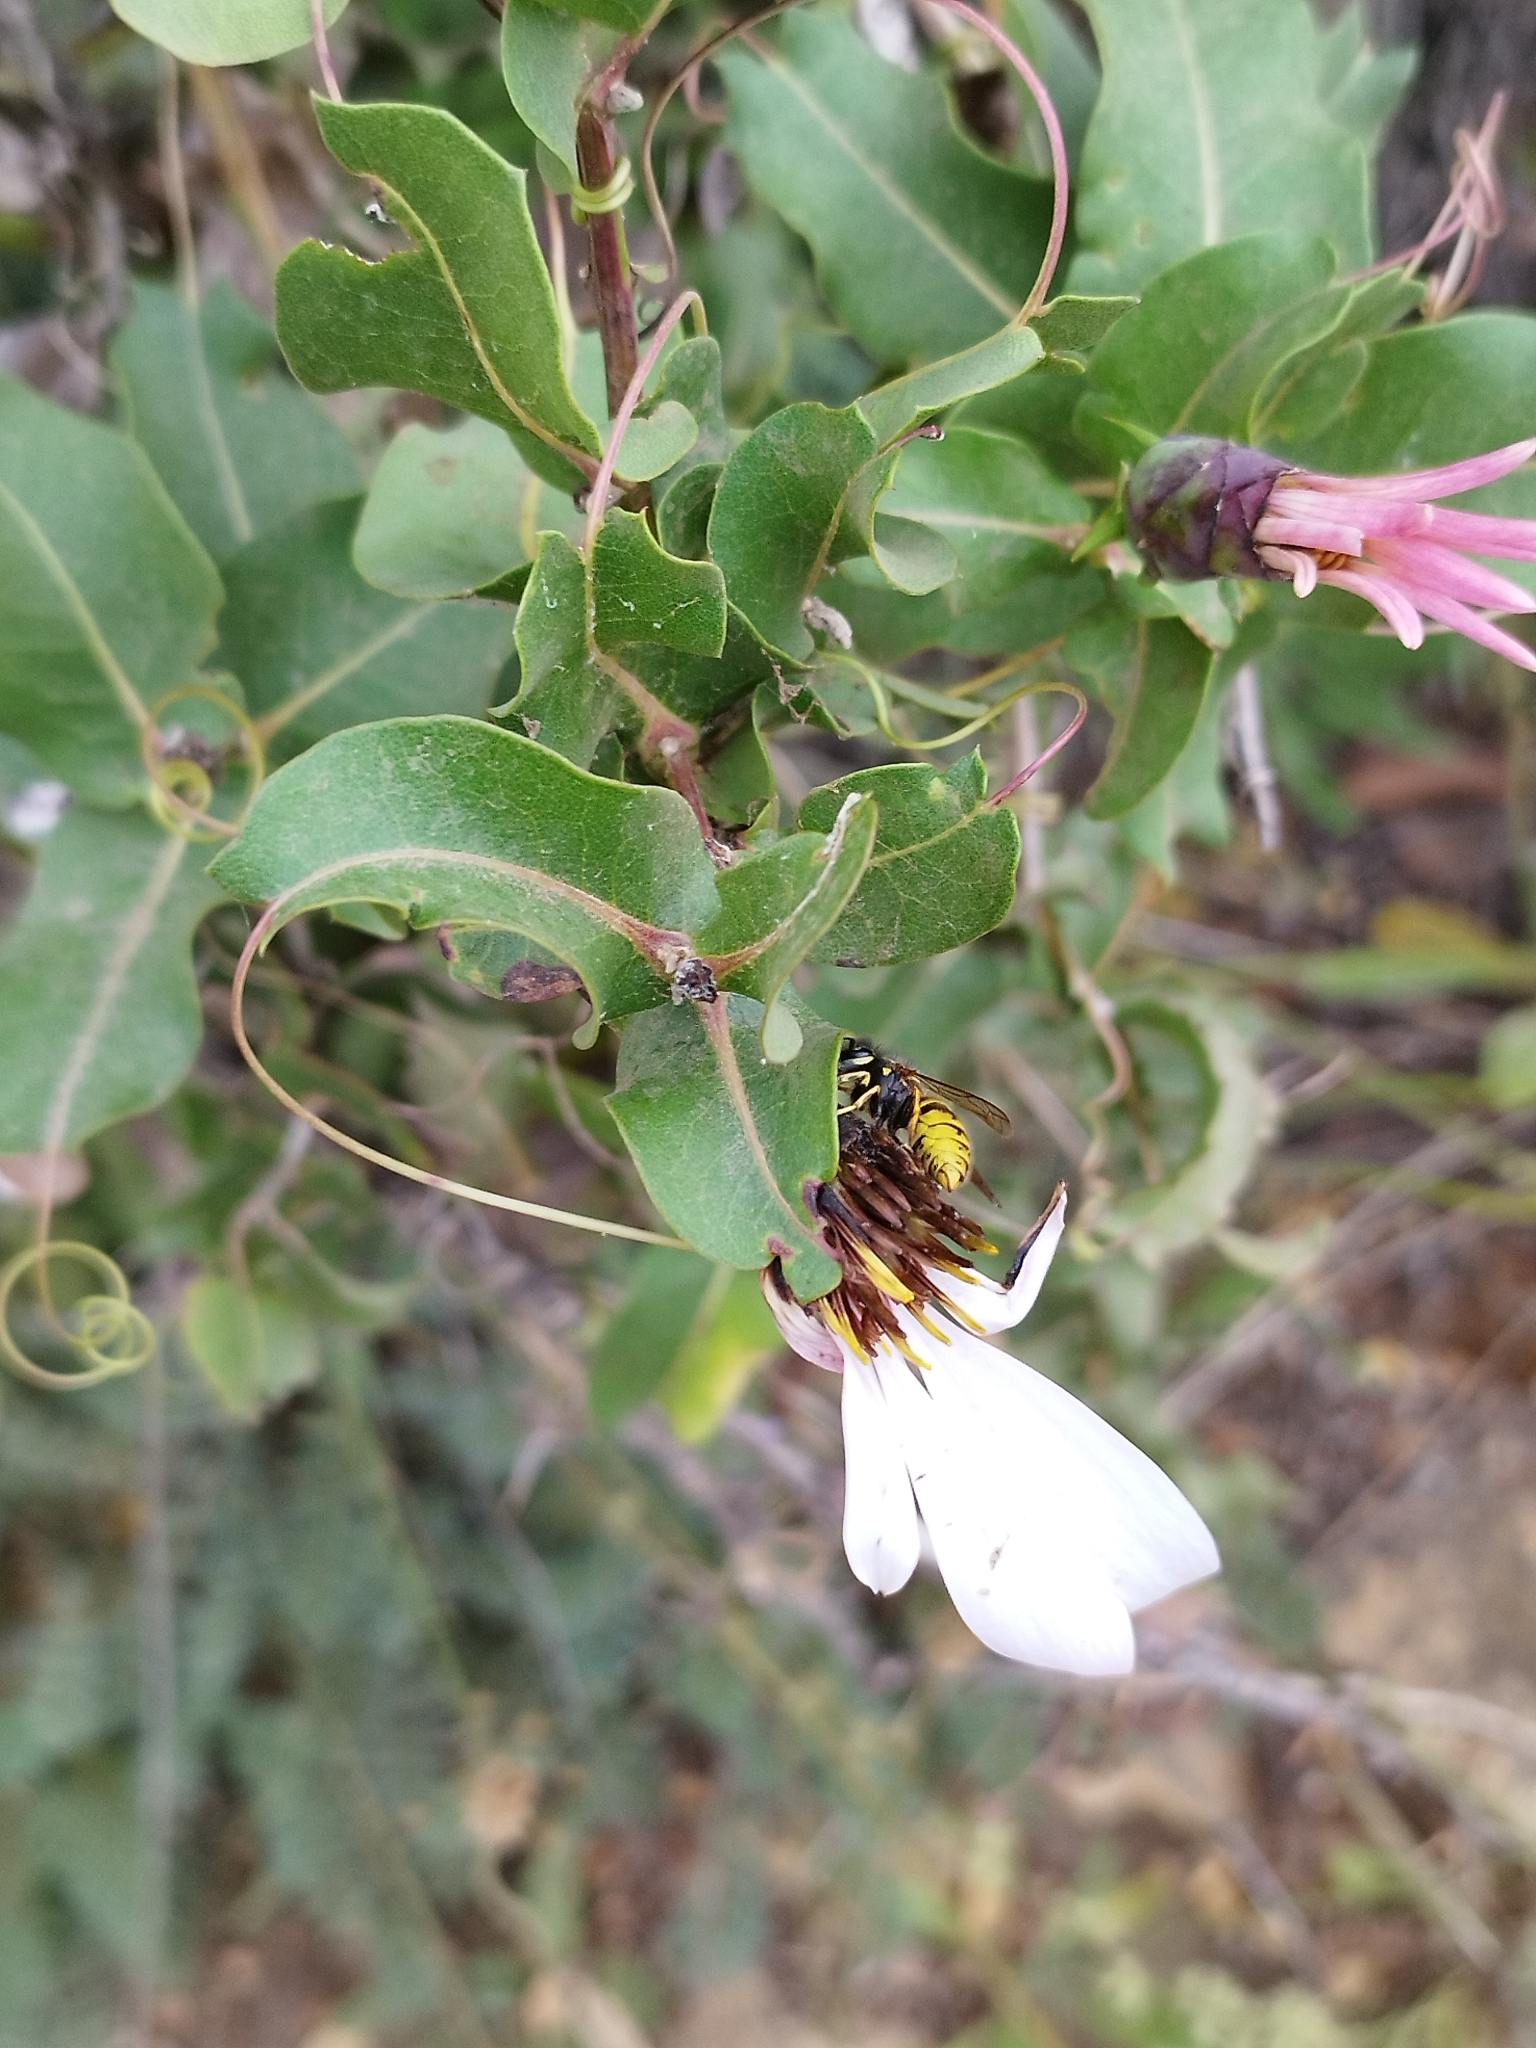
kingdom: Animalia
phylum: Arthropoda
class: Insecta
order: Hymenoptera
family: Vespidae
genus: Vespula
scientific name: Vespula vulgaris
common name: Common wasp
